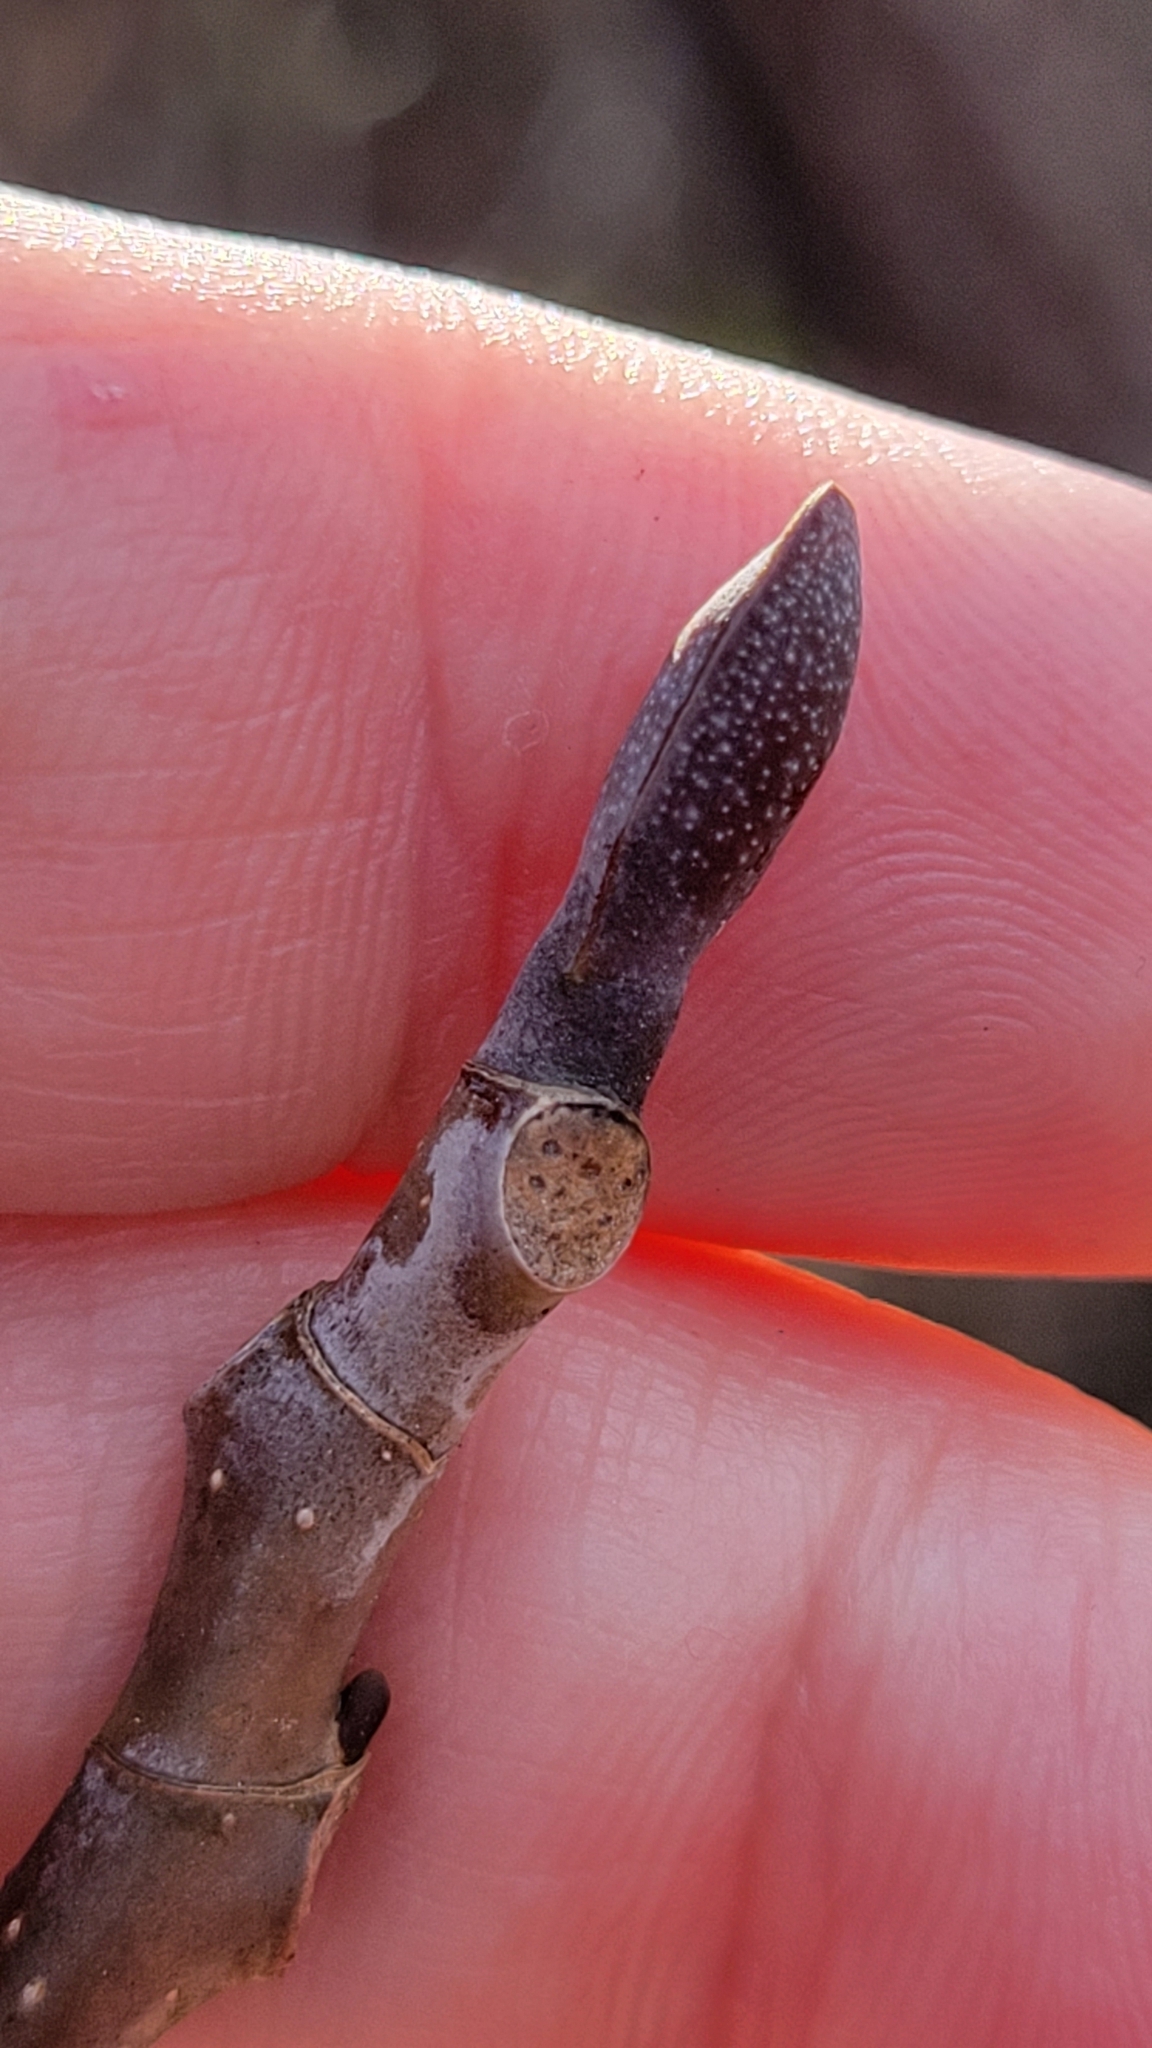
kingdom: Plantae
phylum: Tracheophyta
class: Magnoliopsida
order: Magnoliales
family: Magnoliaceae
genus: Liriodendron
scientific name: Liriodendron tulipifera
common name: Tulip tree
